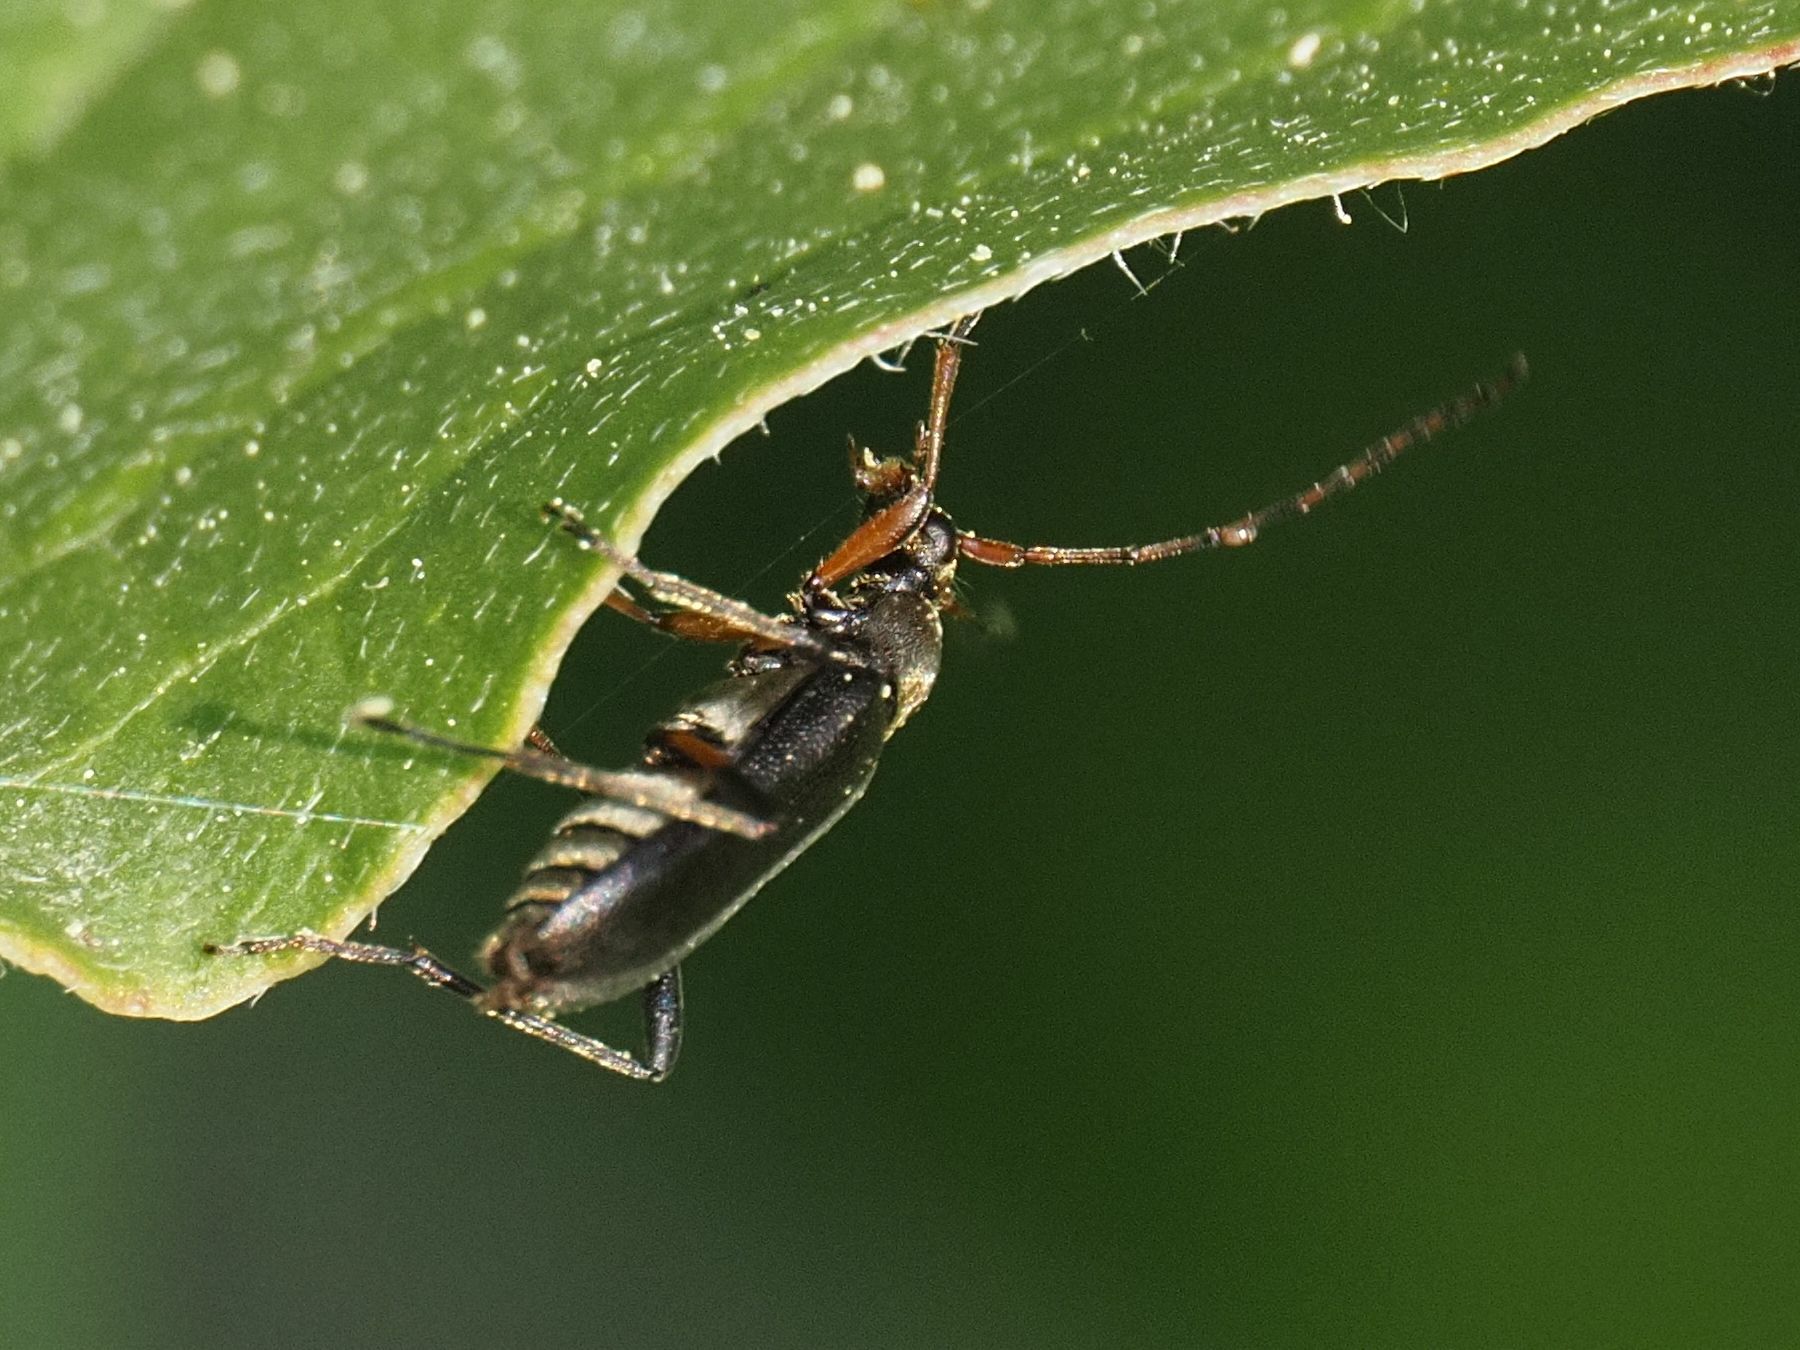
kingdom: Animalia
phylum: Arthropoda
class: Insecta
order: Coleoptera
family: Cerambycidae
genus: Grammoptera
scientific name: Grammoptera ruficornis
